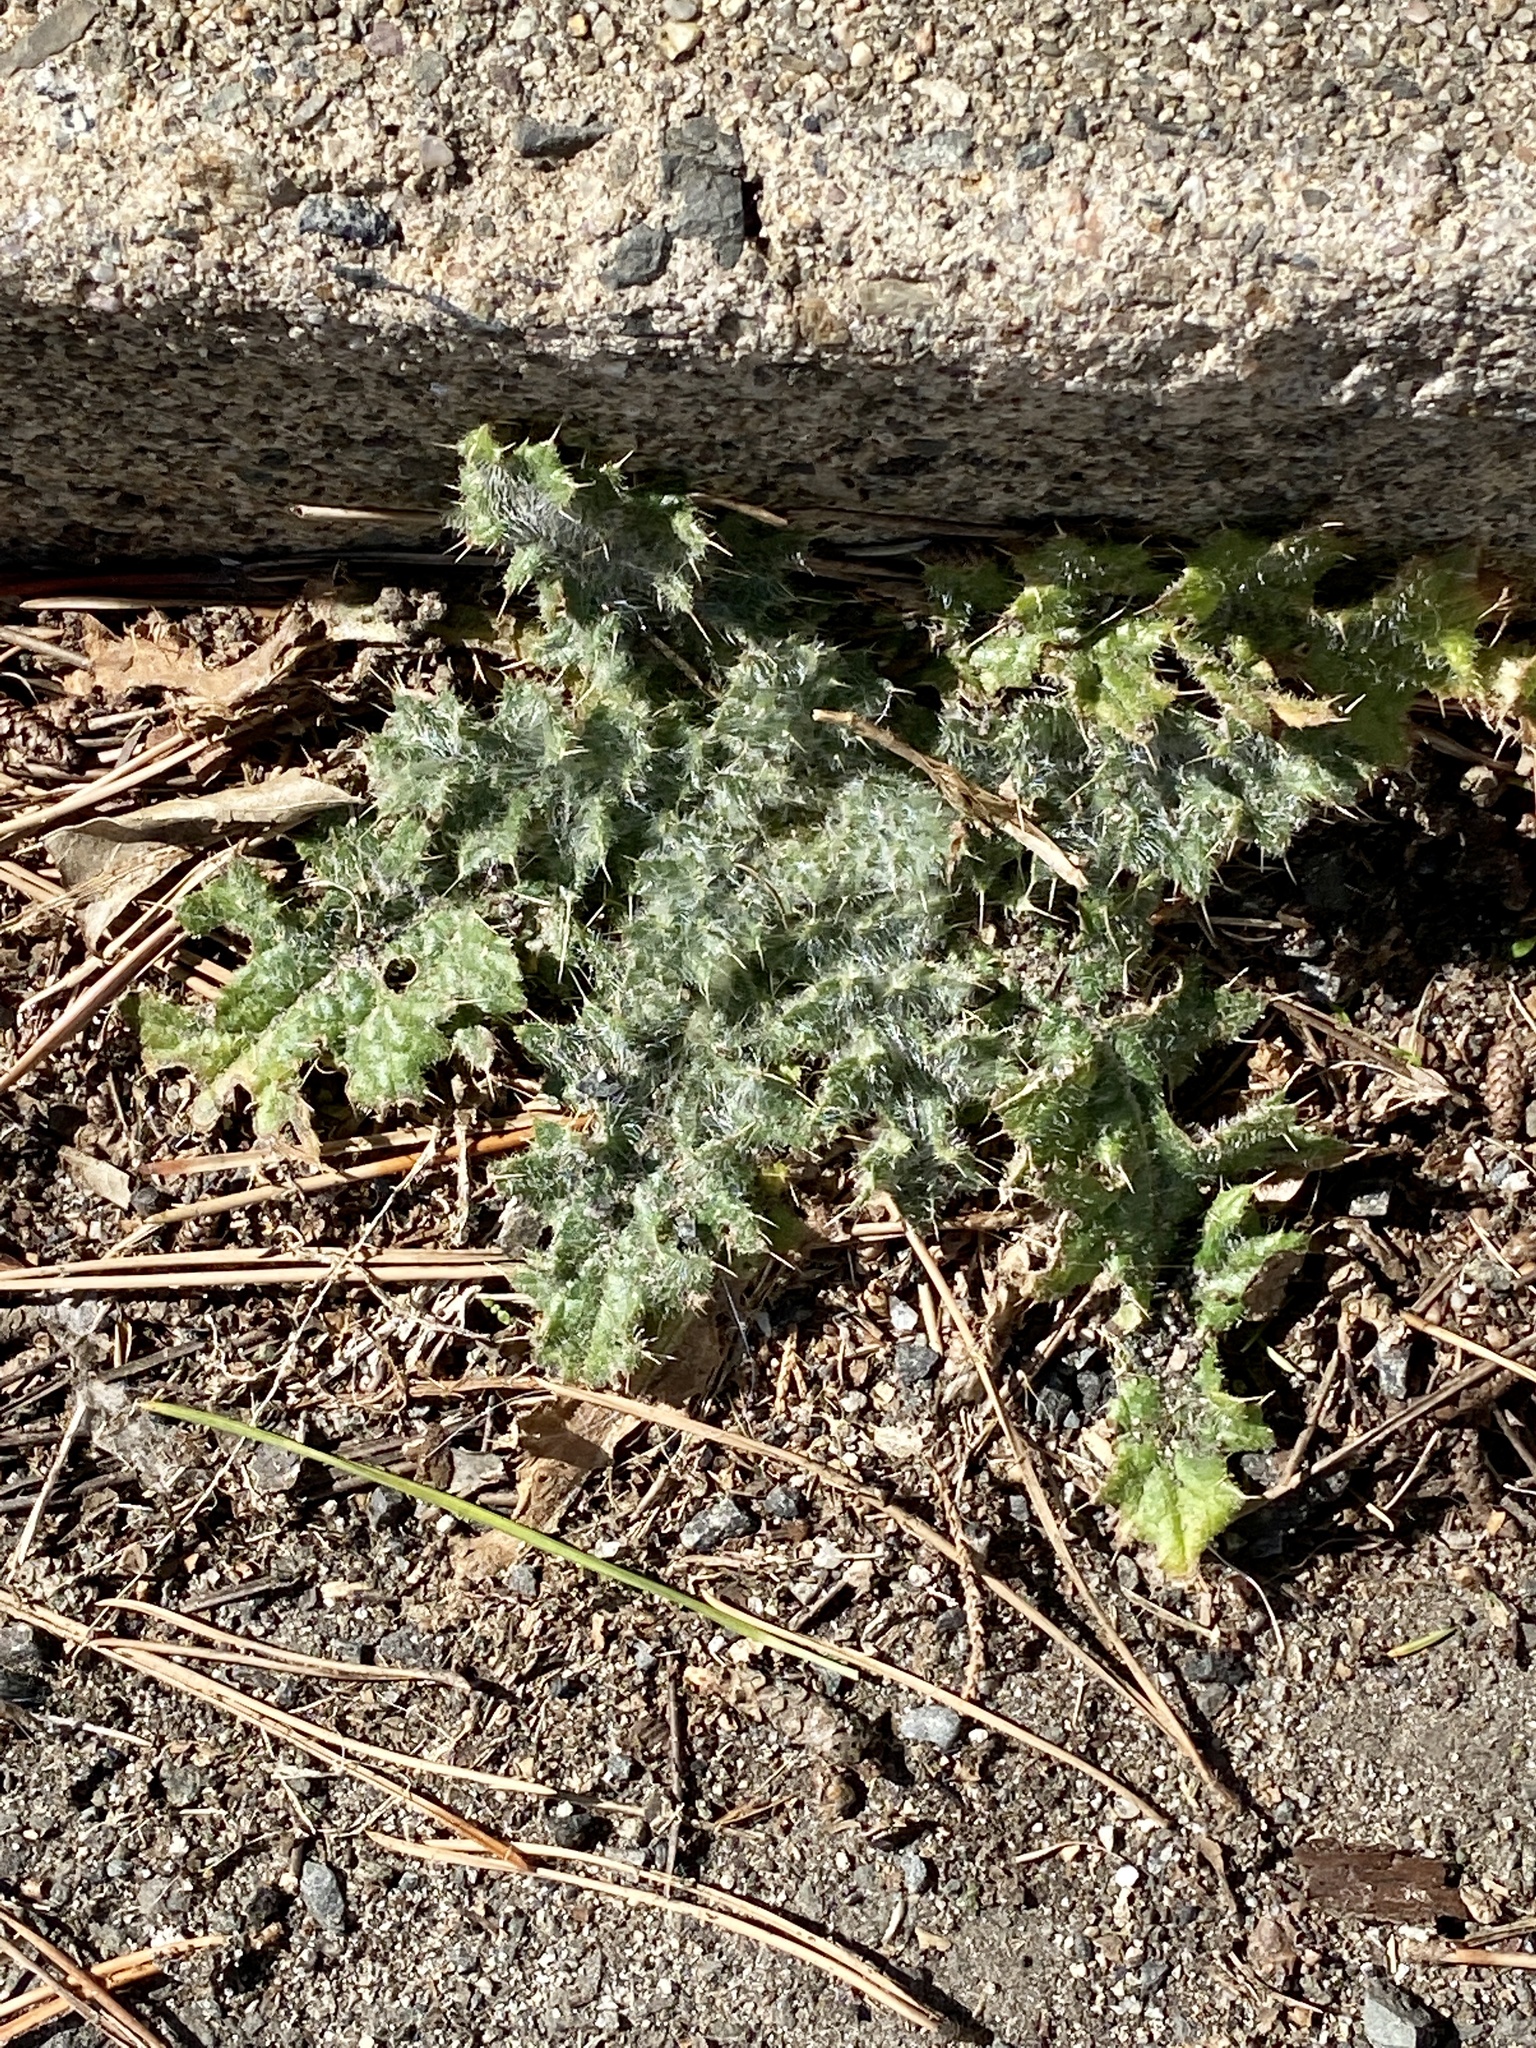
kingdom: Plantae
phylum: Tracheophyta
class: Magnoliopsida
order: Asterales
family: Asteraceae
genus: Cirsium
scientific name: Cirsium vulgare
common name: Bull thistle
